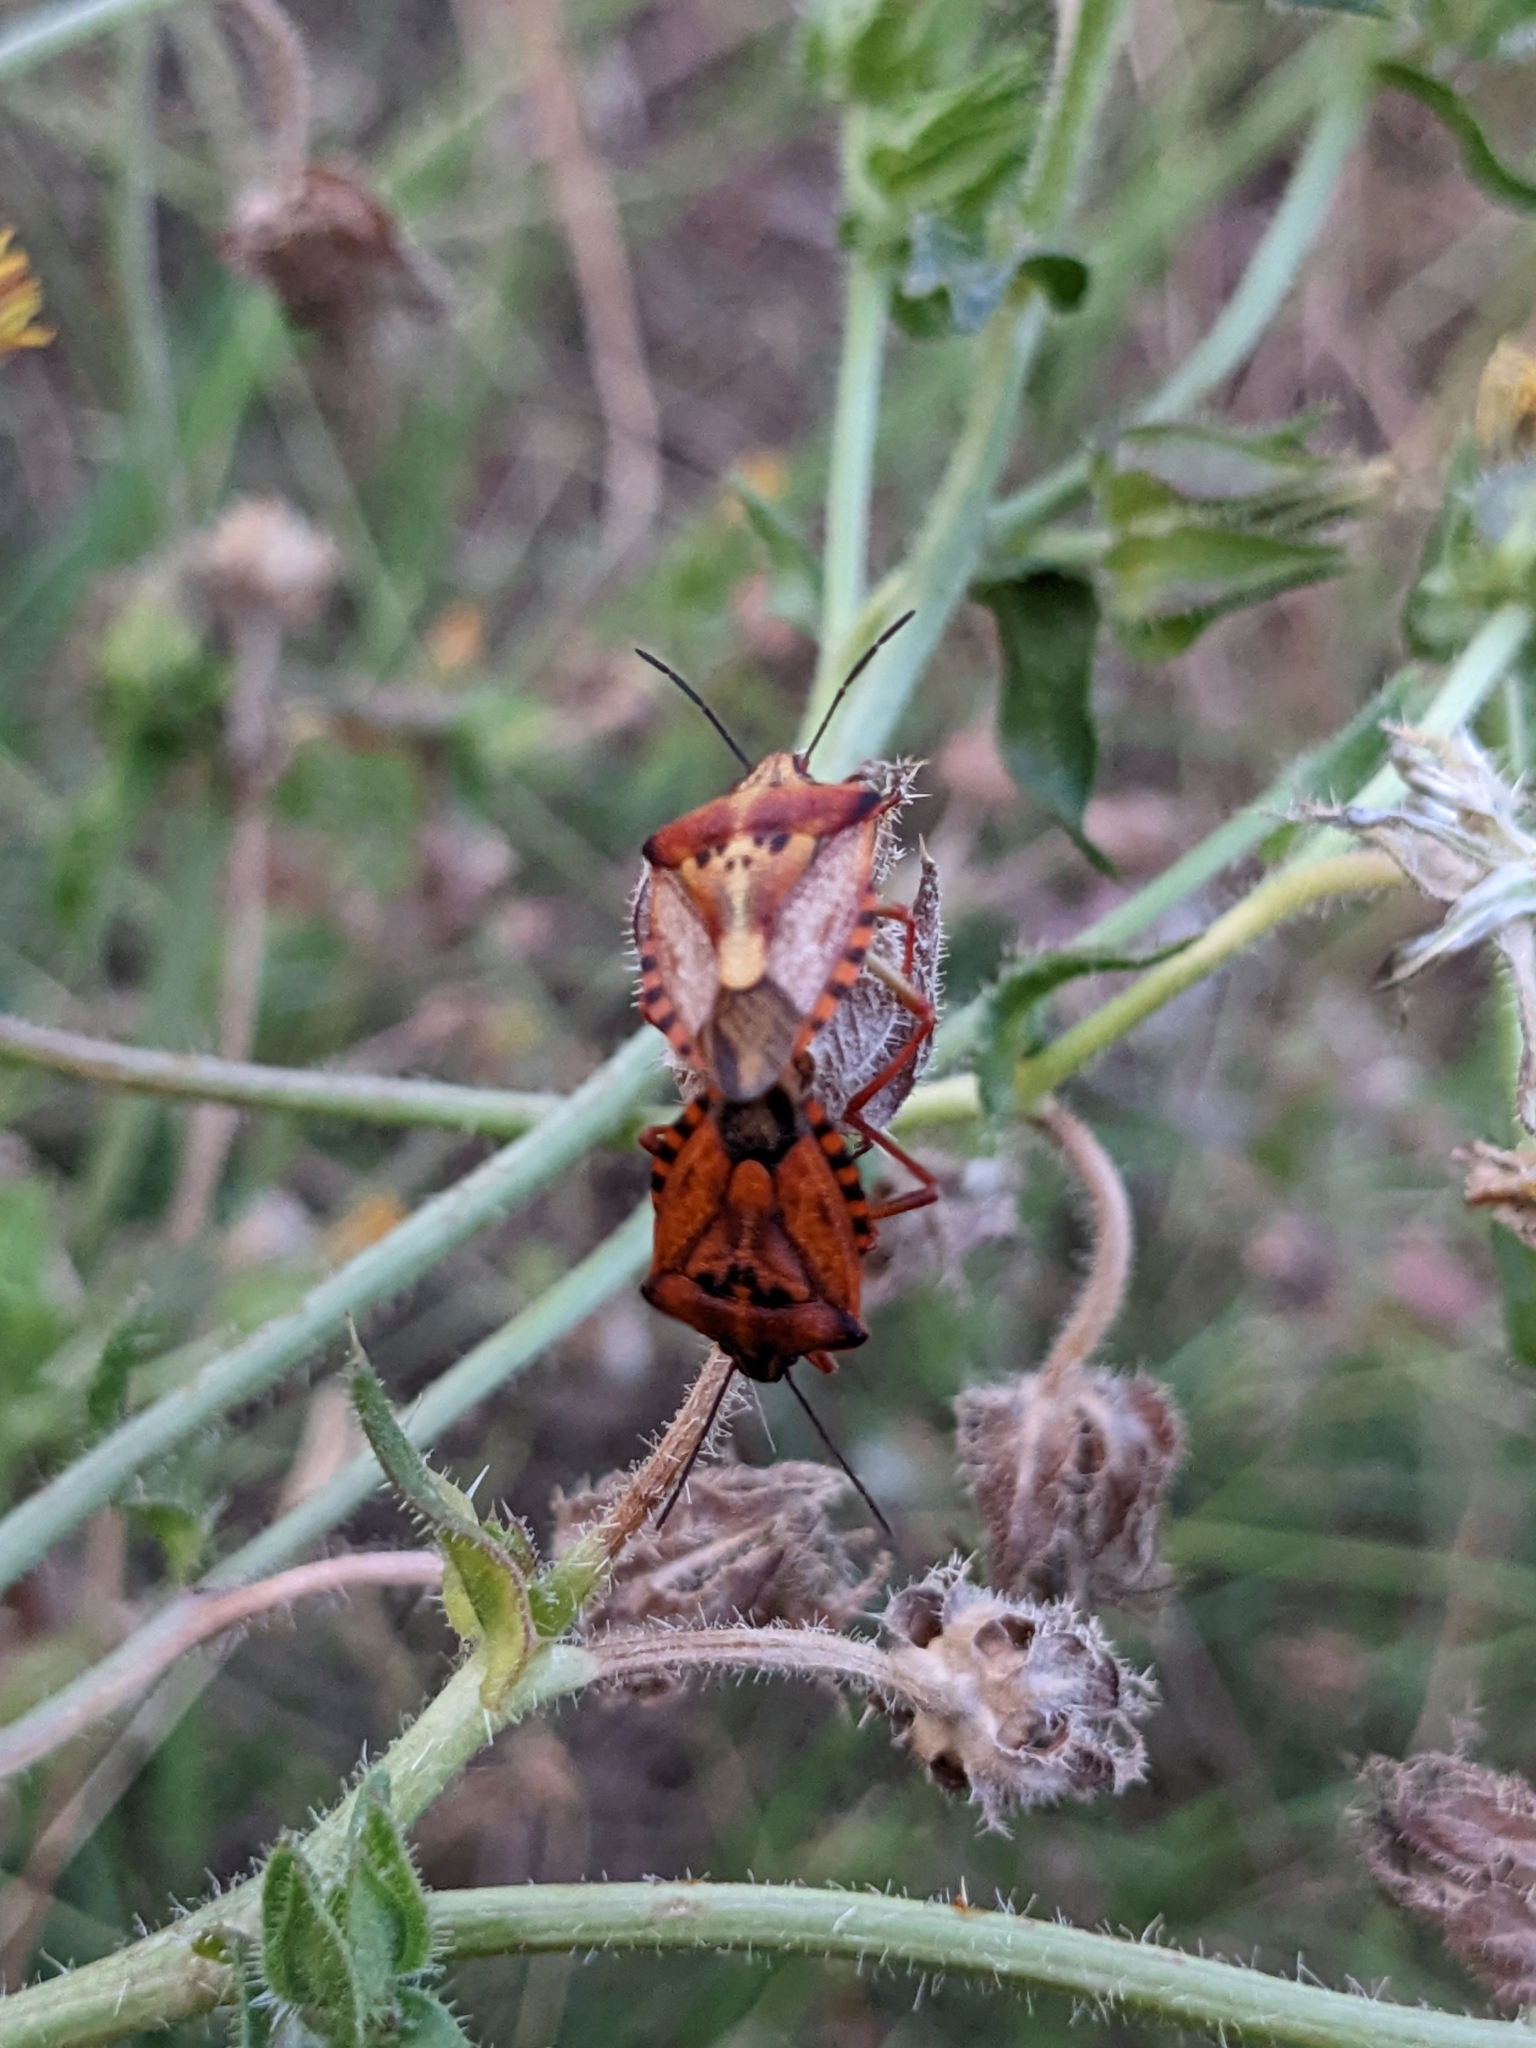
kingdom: Animalia
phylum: Arthropoda
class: Insecta
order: Hemiptera
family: Pentatomidae
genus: Carpocoris
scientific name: Carpocoris mediterraneus
